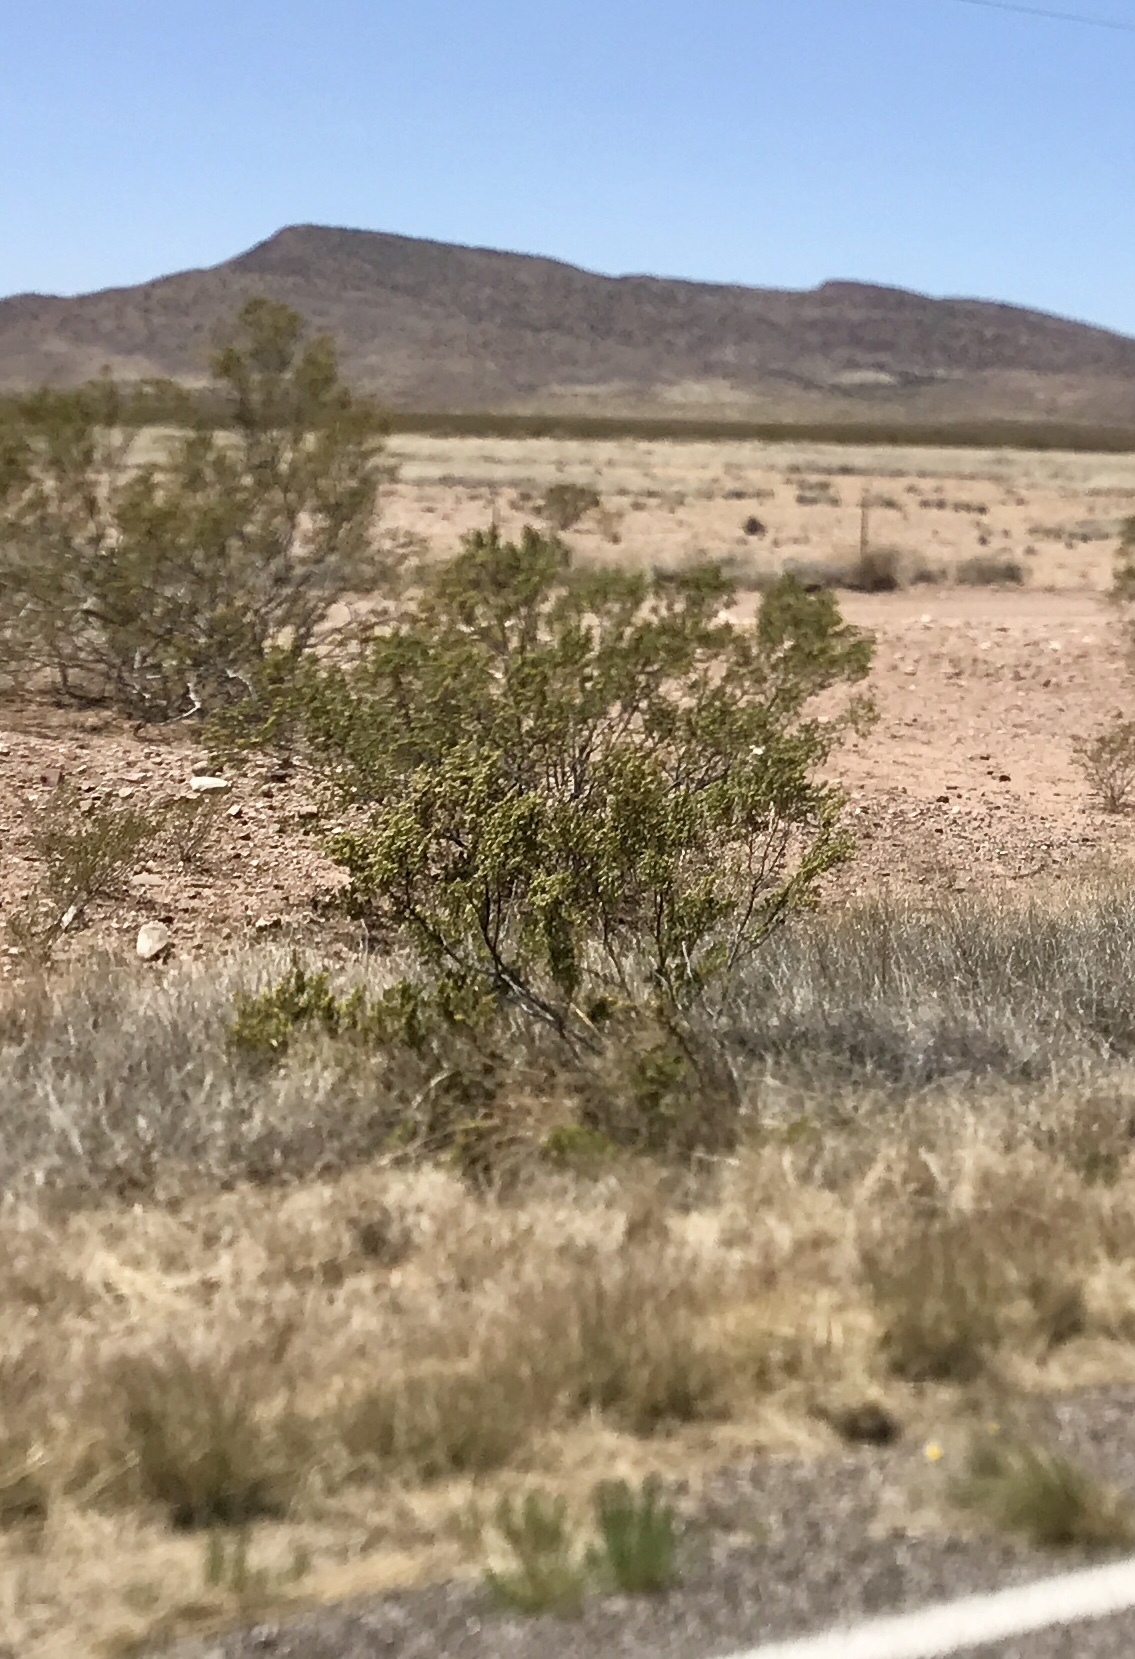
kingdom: Plantae
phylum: Tracheophyta
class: Magnoliopsida
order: Zygophyllales
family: Zygophyllaceae
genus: Larrea
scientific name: Larrea tridentata
